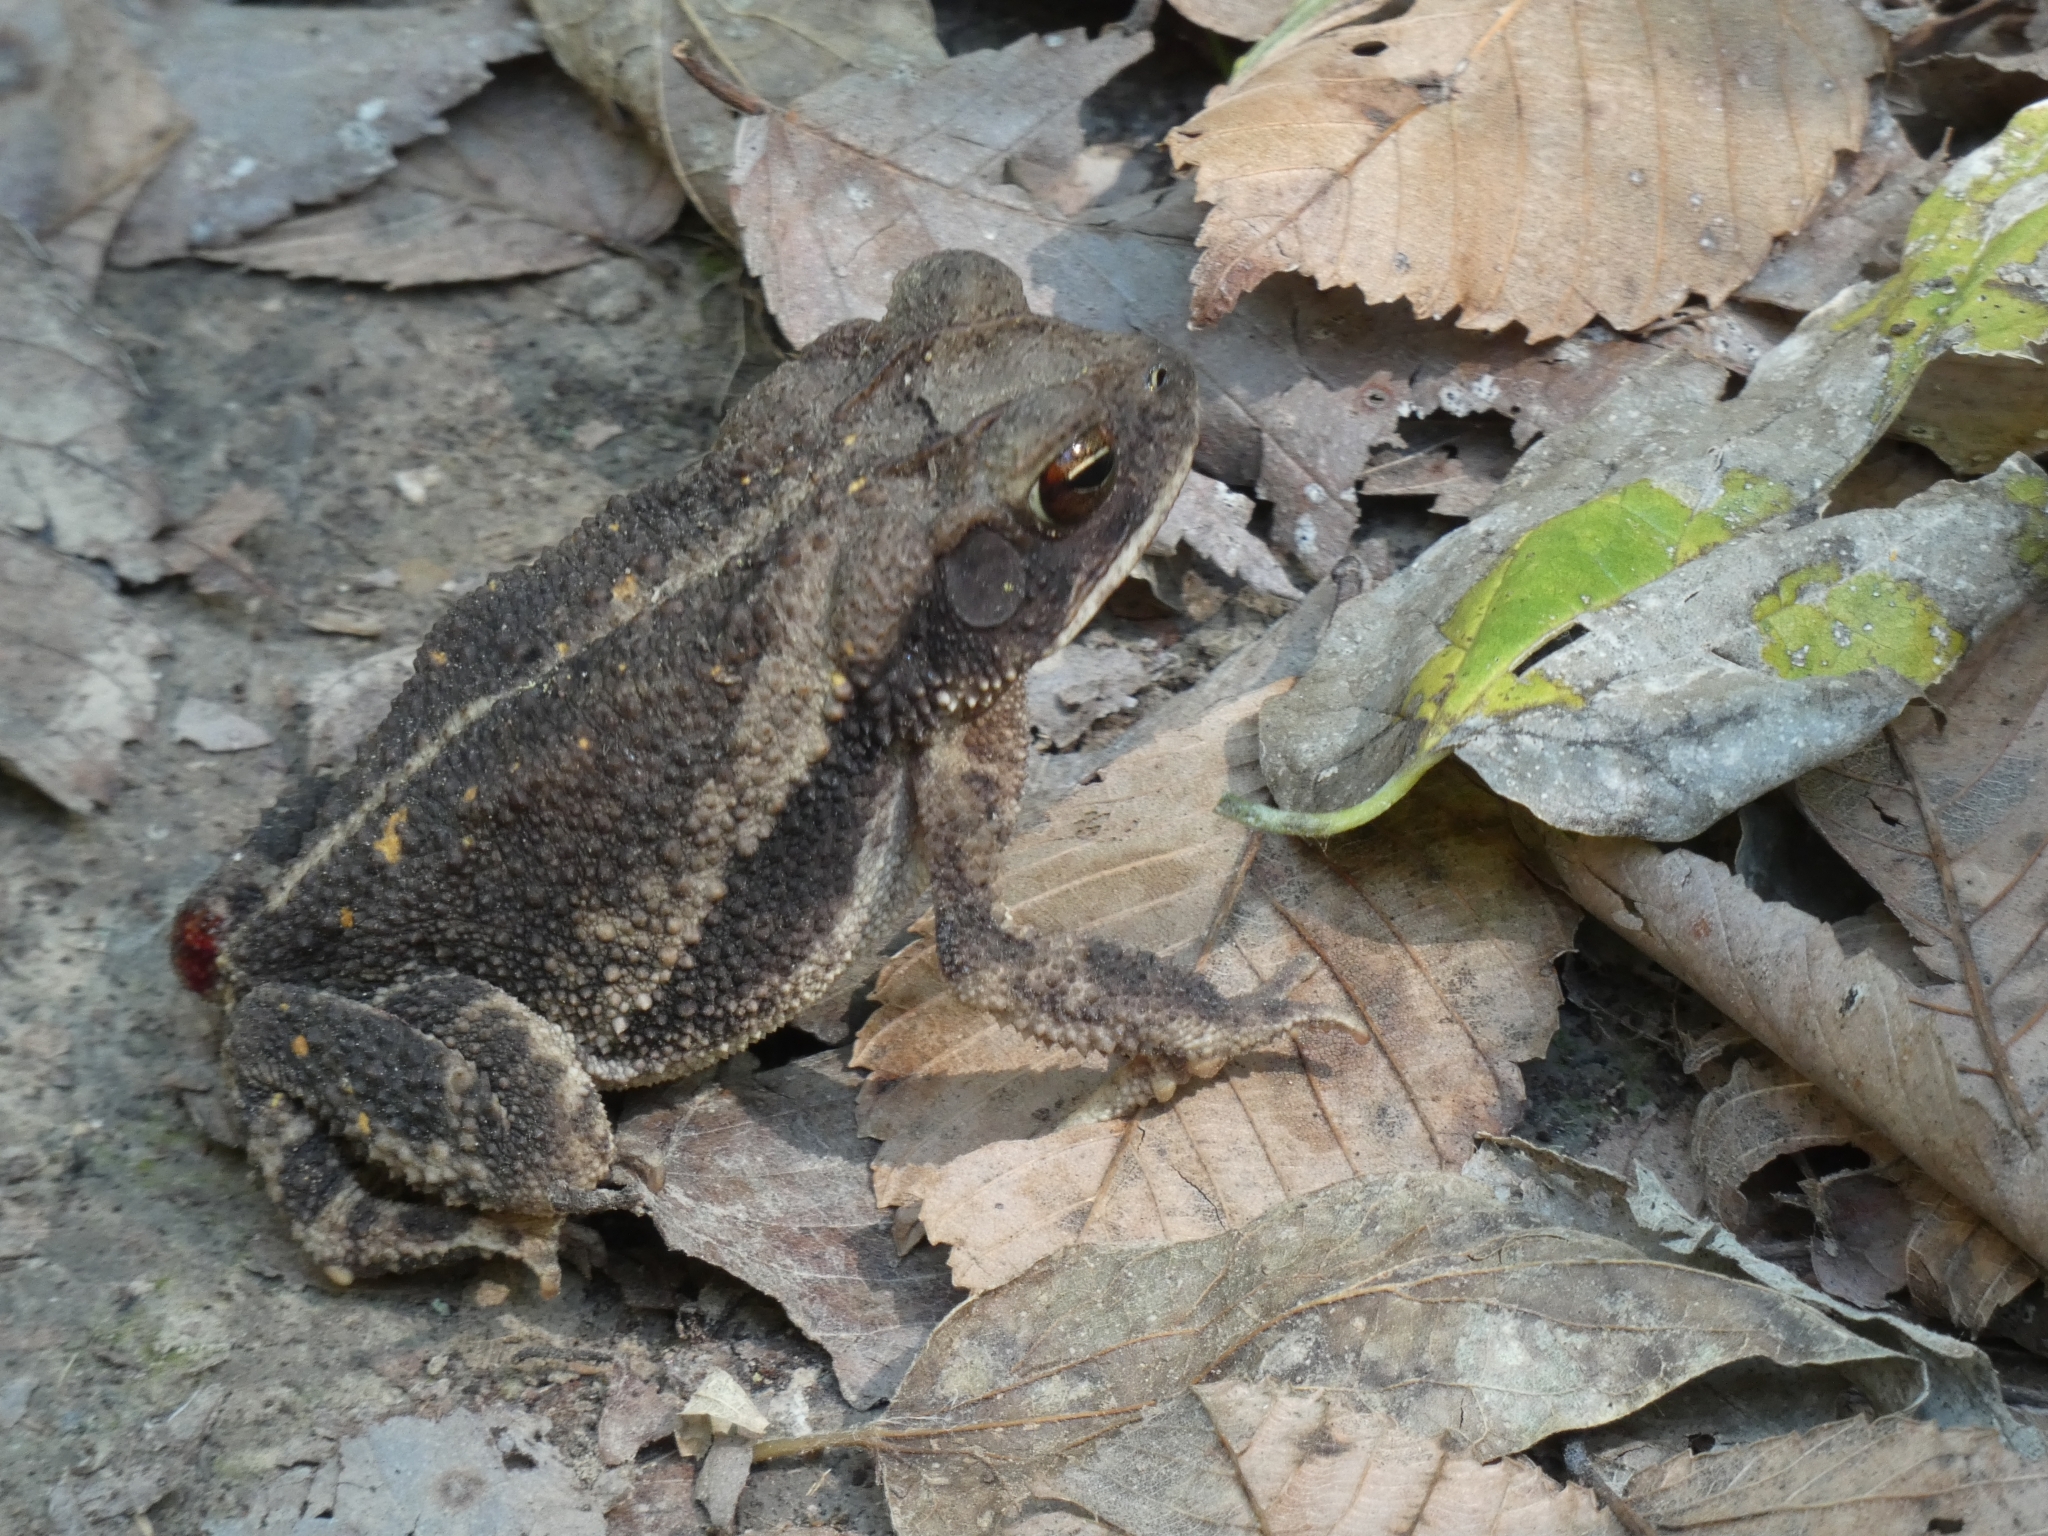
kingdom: Animalia
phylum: Chordata
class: Amphibia
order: Anura
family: Bufonidae
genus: Incilius
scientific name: Incilius nebulifer
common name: Gulf coast toad
